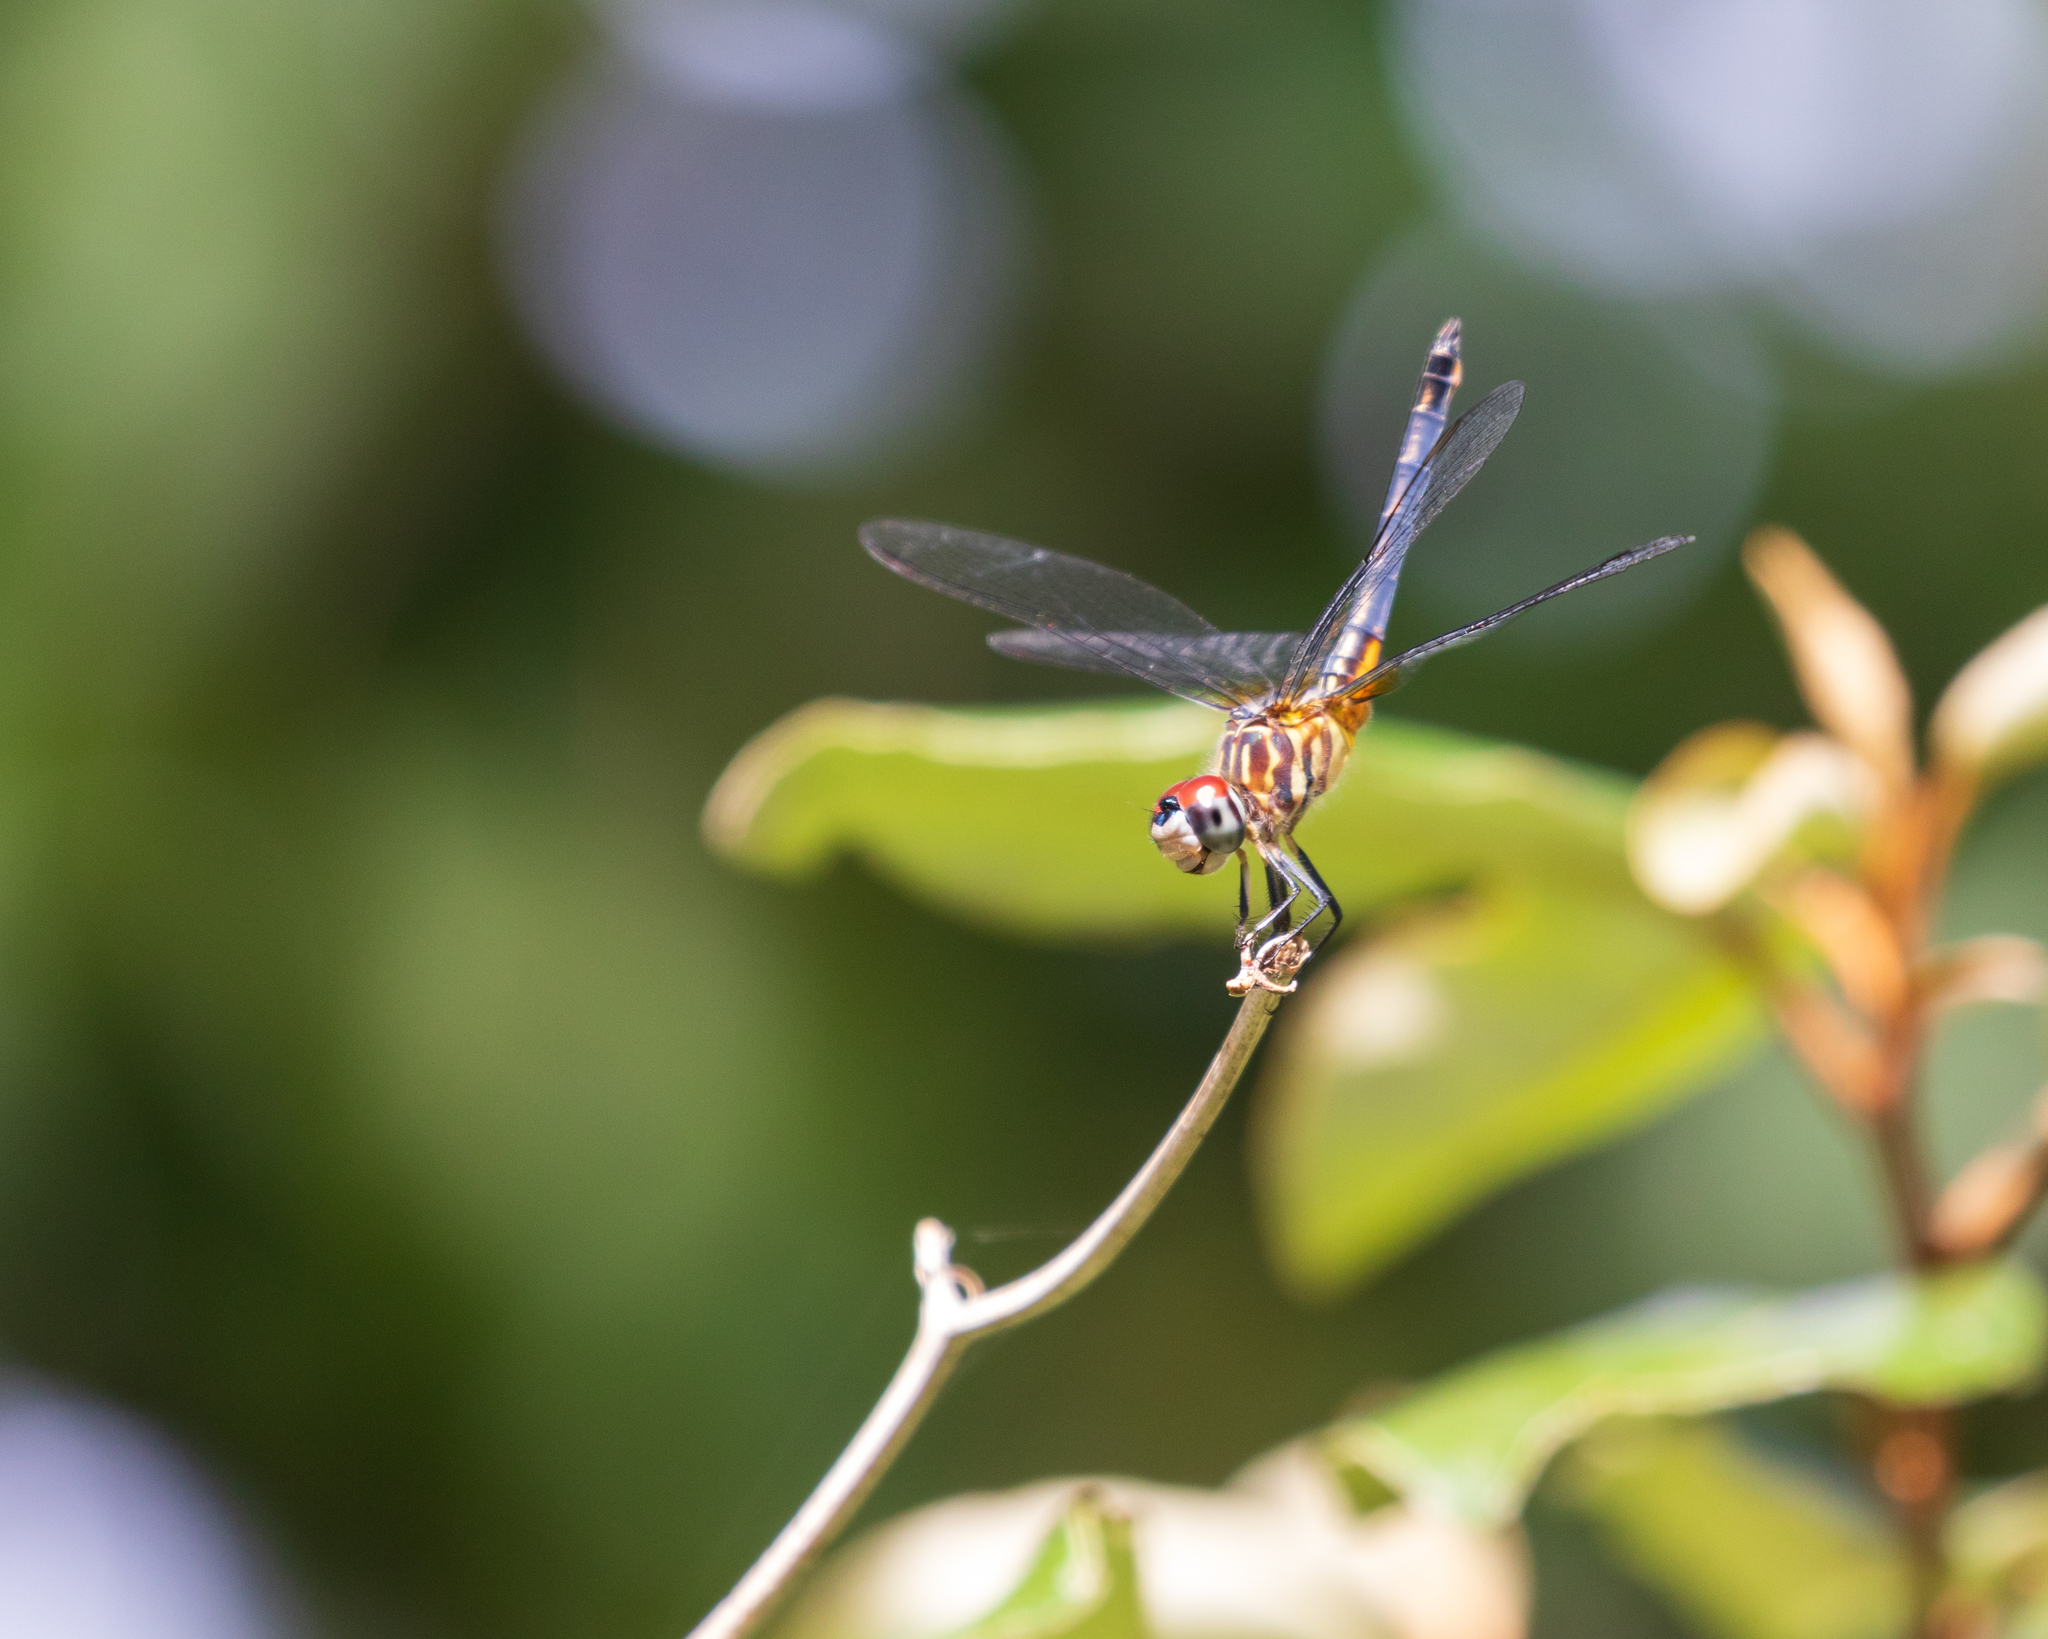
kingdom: Animalia
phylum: Arthropoda
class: Insecta
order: Odonata
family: Libellulidae
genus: Pachydiplax
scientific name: Pachydiplax longipennis
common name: Blue dasher
